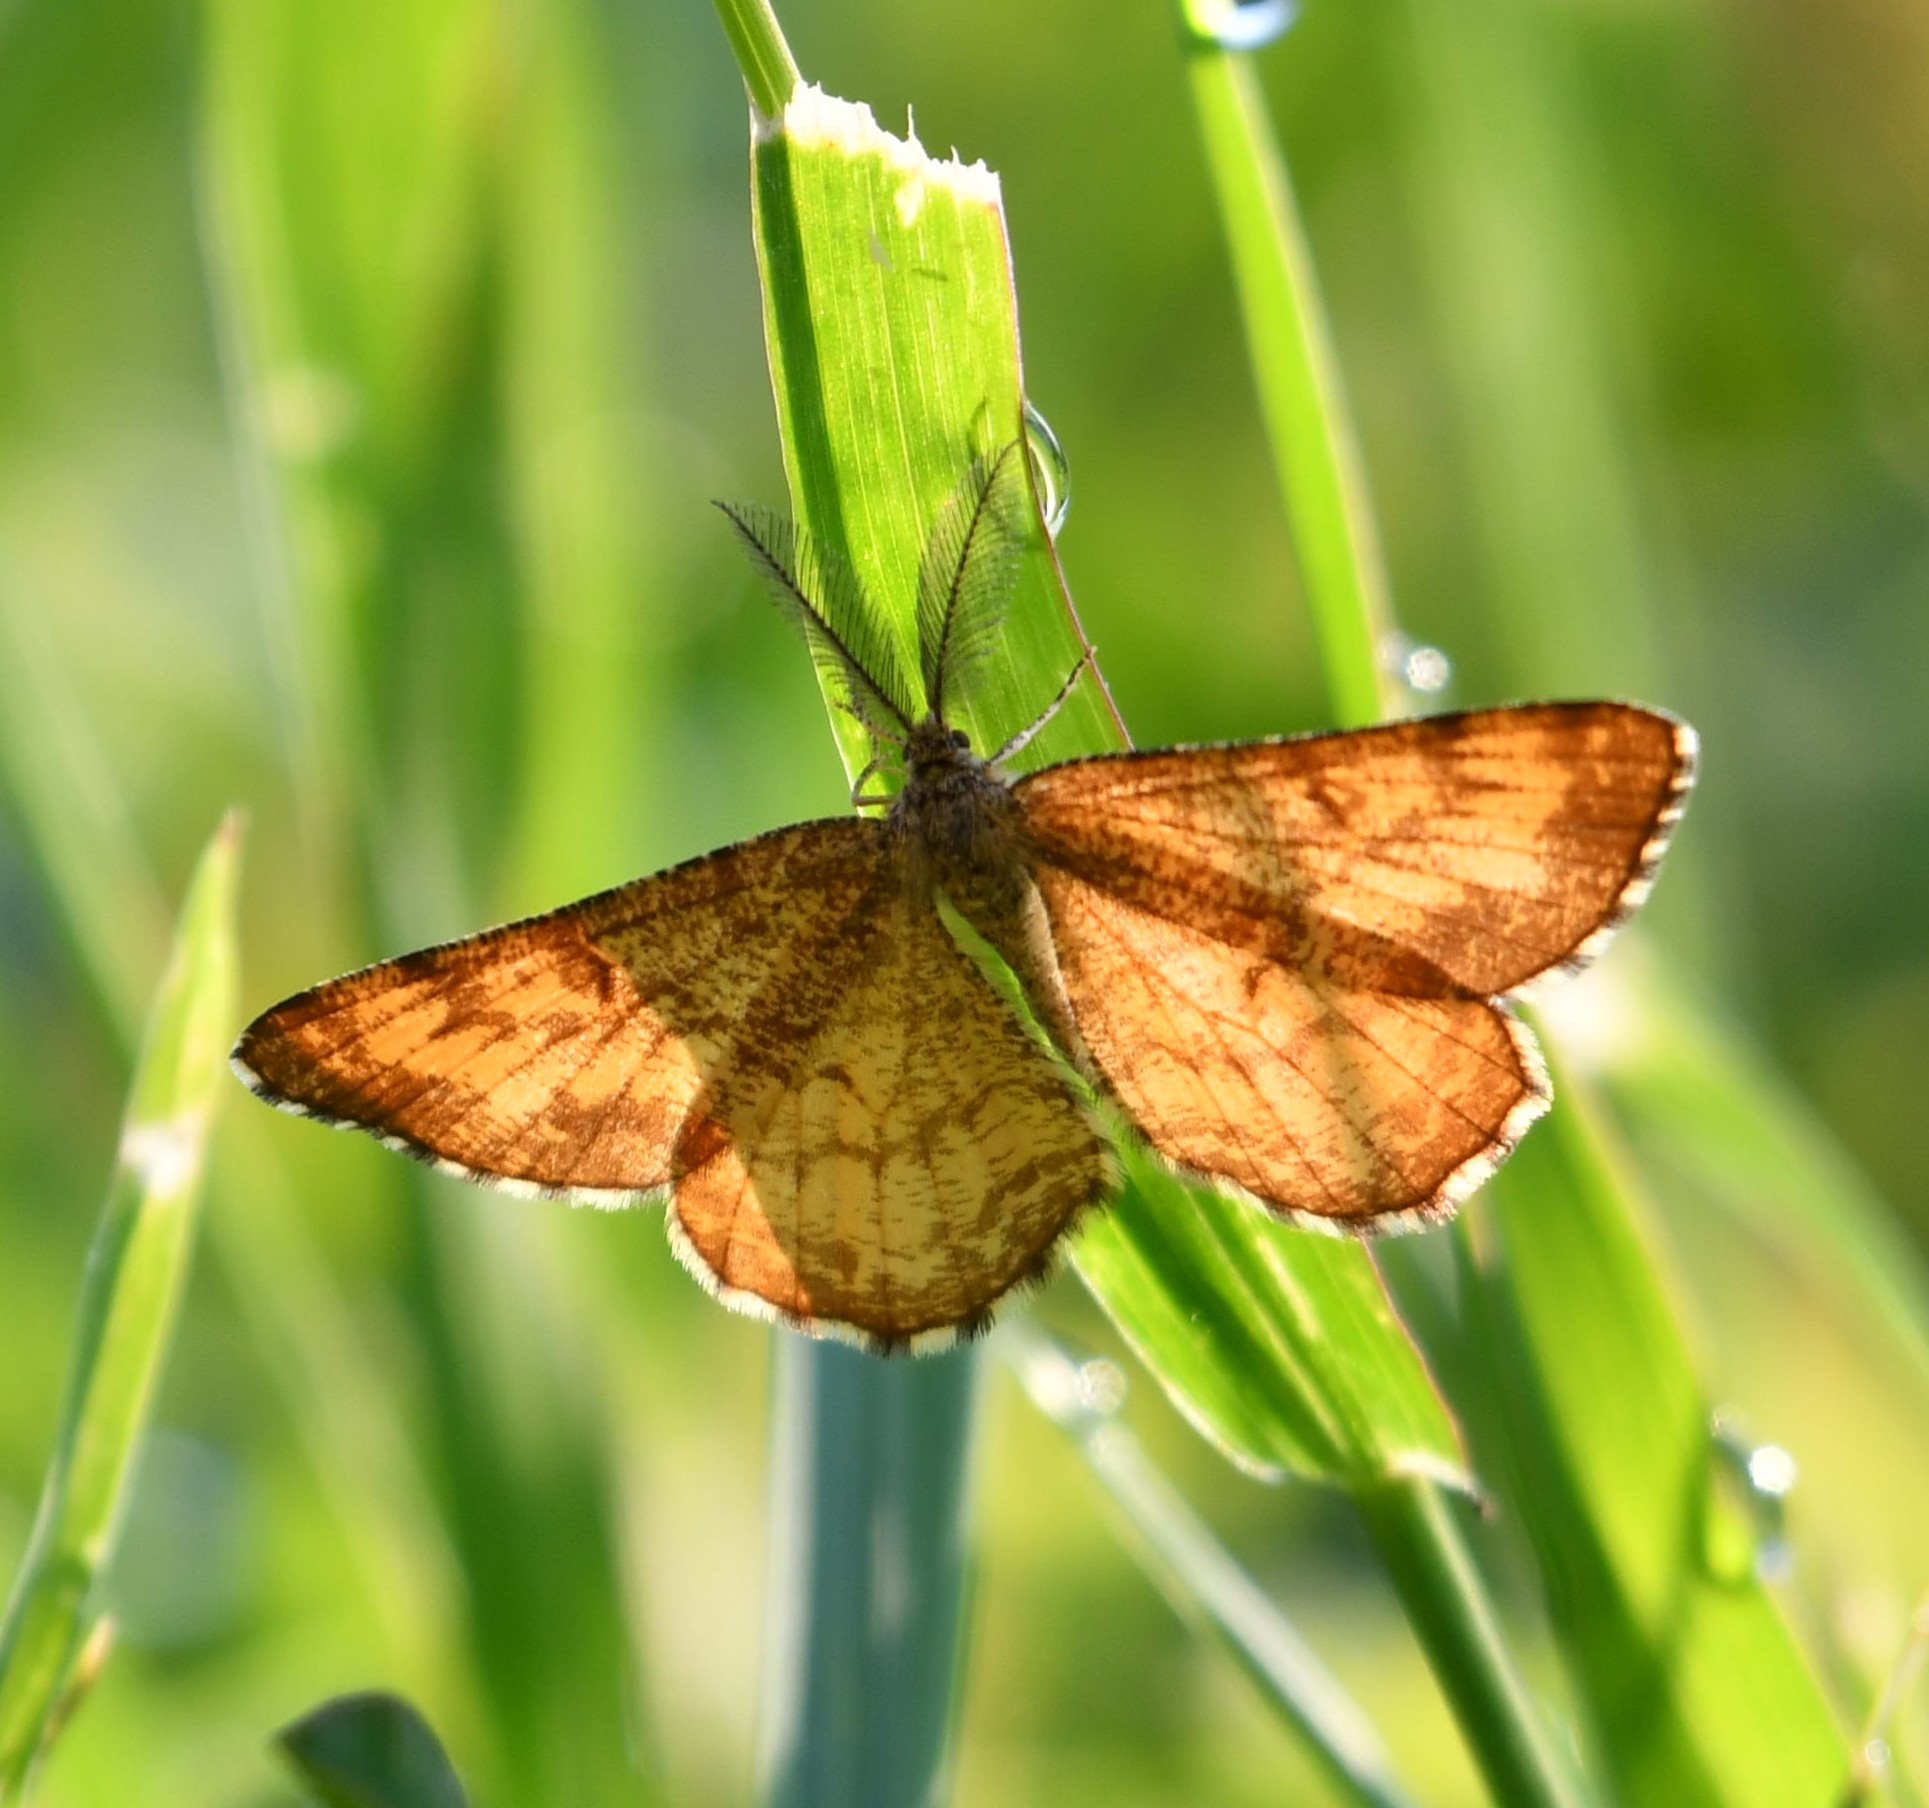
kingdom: Animalia
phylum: Arthropoda
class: Insecta
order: Lepidoptera
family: Geometridae
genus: Ematurga
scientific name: Ematurga atomaria
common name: Common heath
